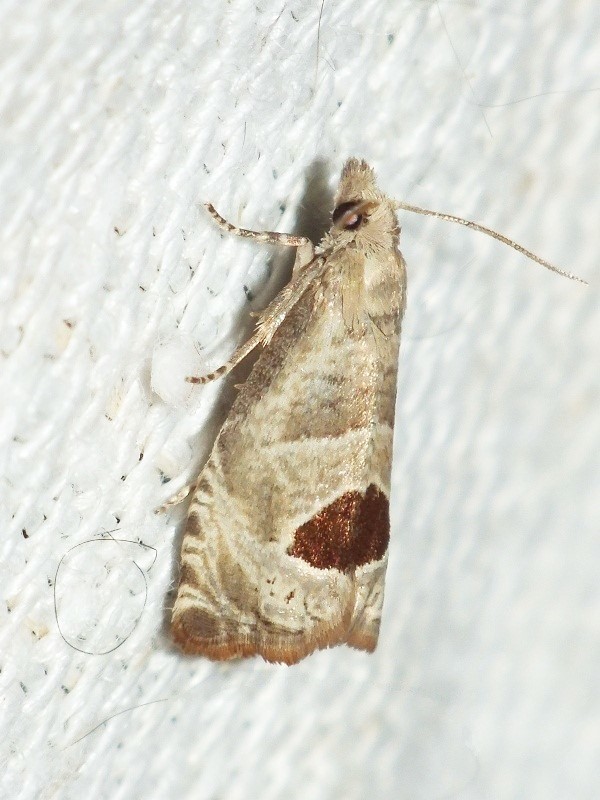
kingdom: Animalia
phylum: Arthropoda
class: Insecta
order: Lepidoptera
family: Tortricidae
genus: Notocelia
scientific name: Notocelia uddmanniana
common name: Bramble shoot moth
